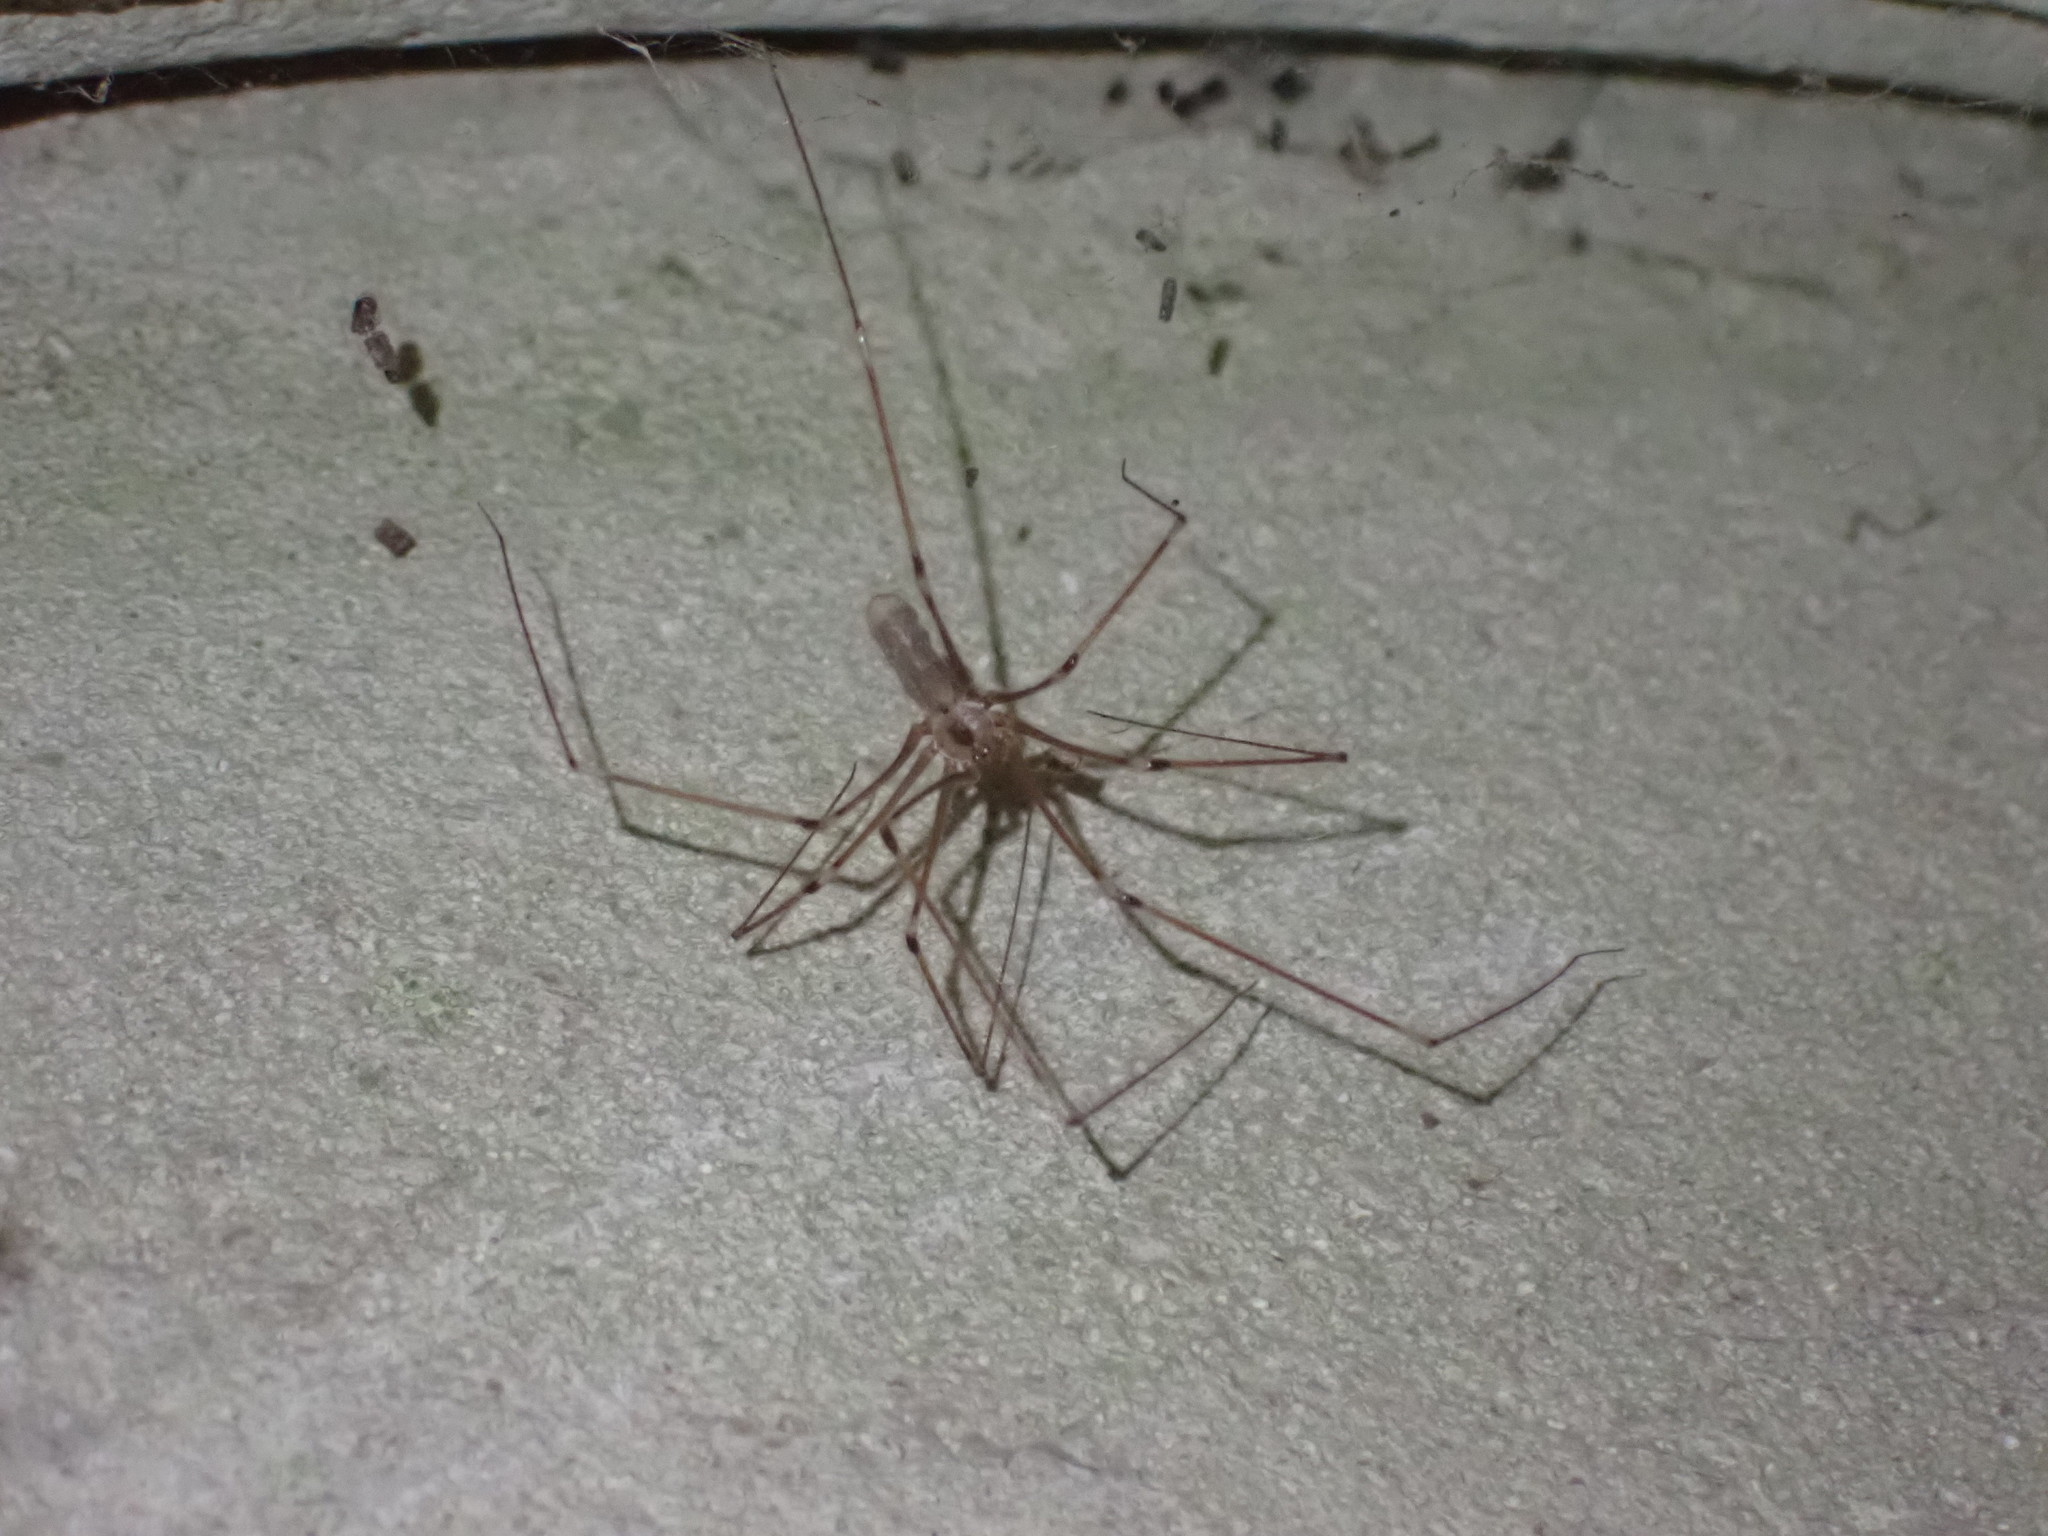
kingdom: Animalia
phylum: Arthropoda
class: Arachnida
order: Araneae
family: Pholcidae
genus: Pholcus
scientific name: Pholcus phalangioides
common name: Longbodied cellar spider
